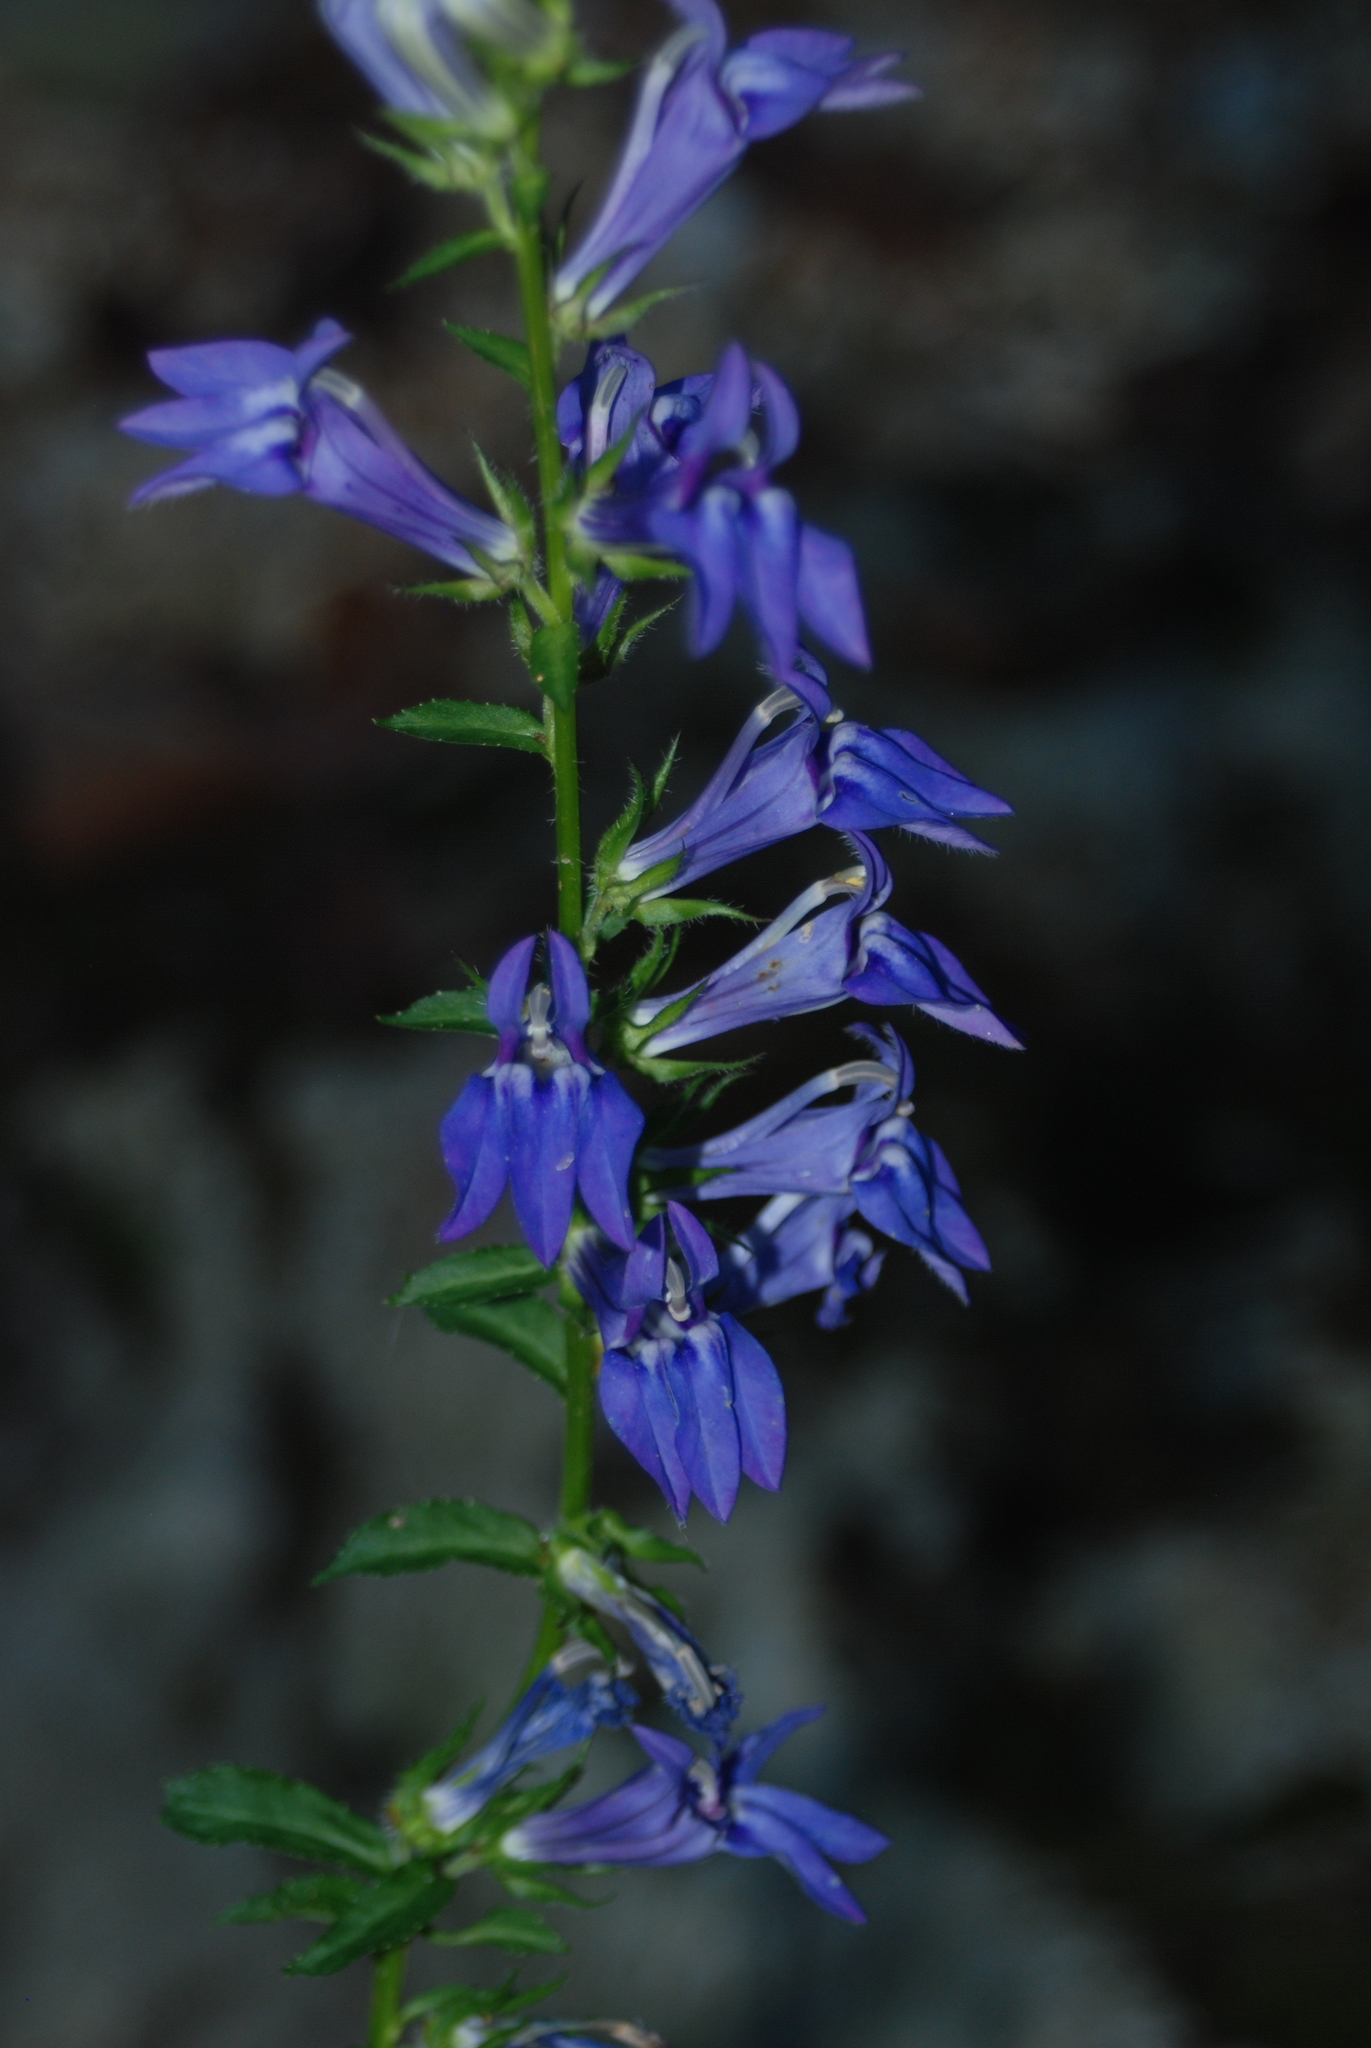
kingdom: Plantae
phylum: Tracheophyta
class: Magnoliopsida
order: Asterales
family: Campanulaceae
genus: Lobelia
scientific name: Lobelia siphilitica
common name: Great lobelia
